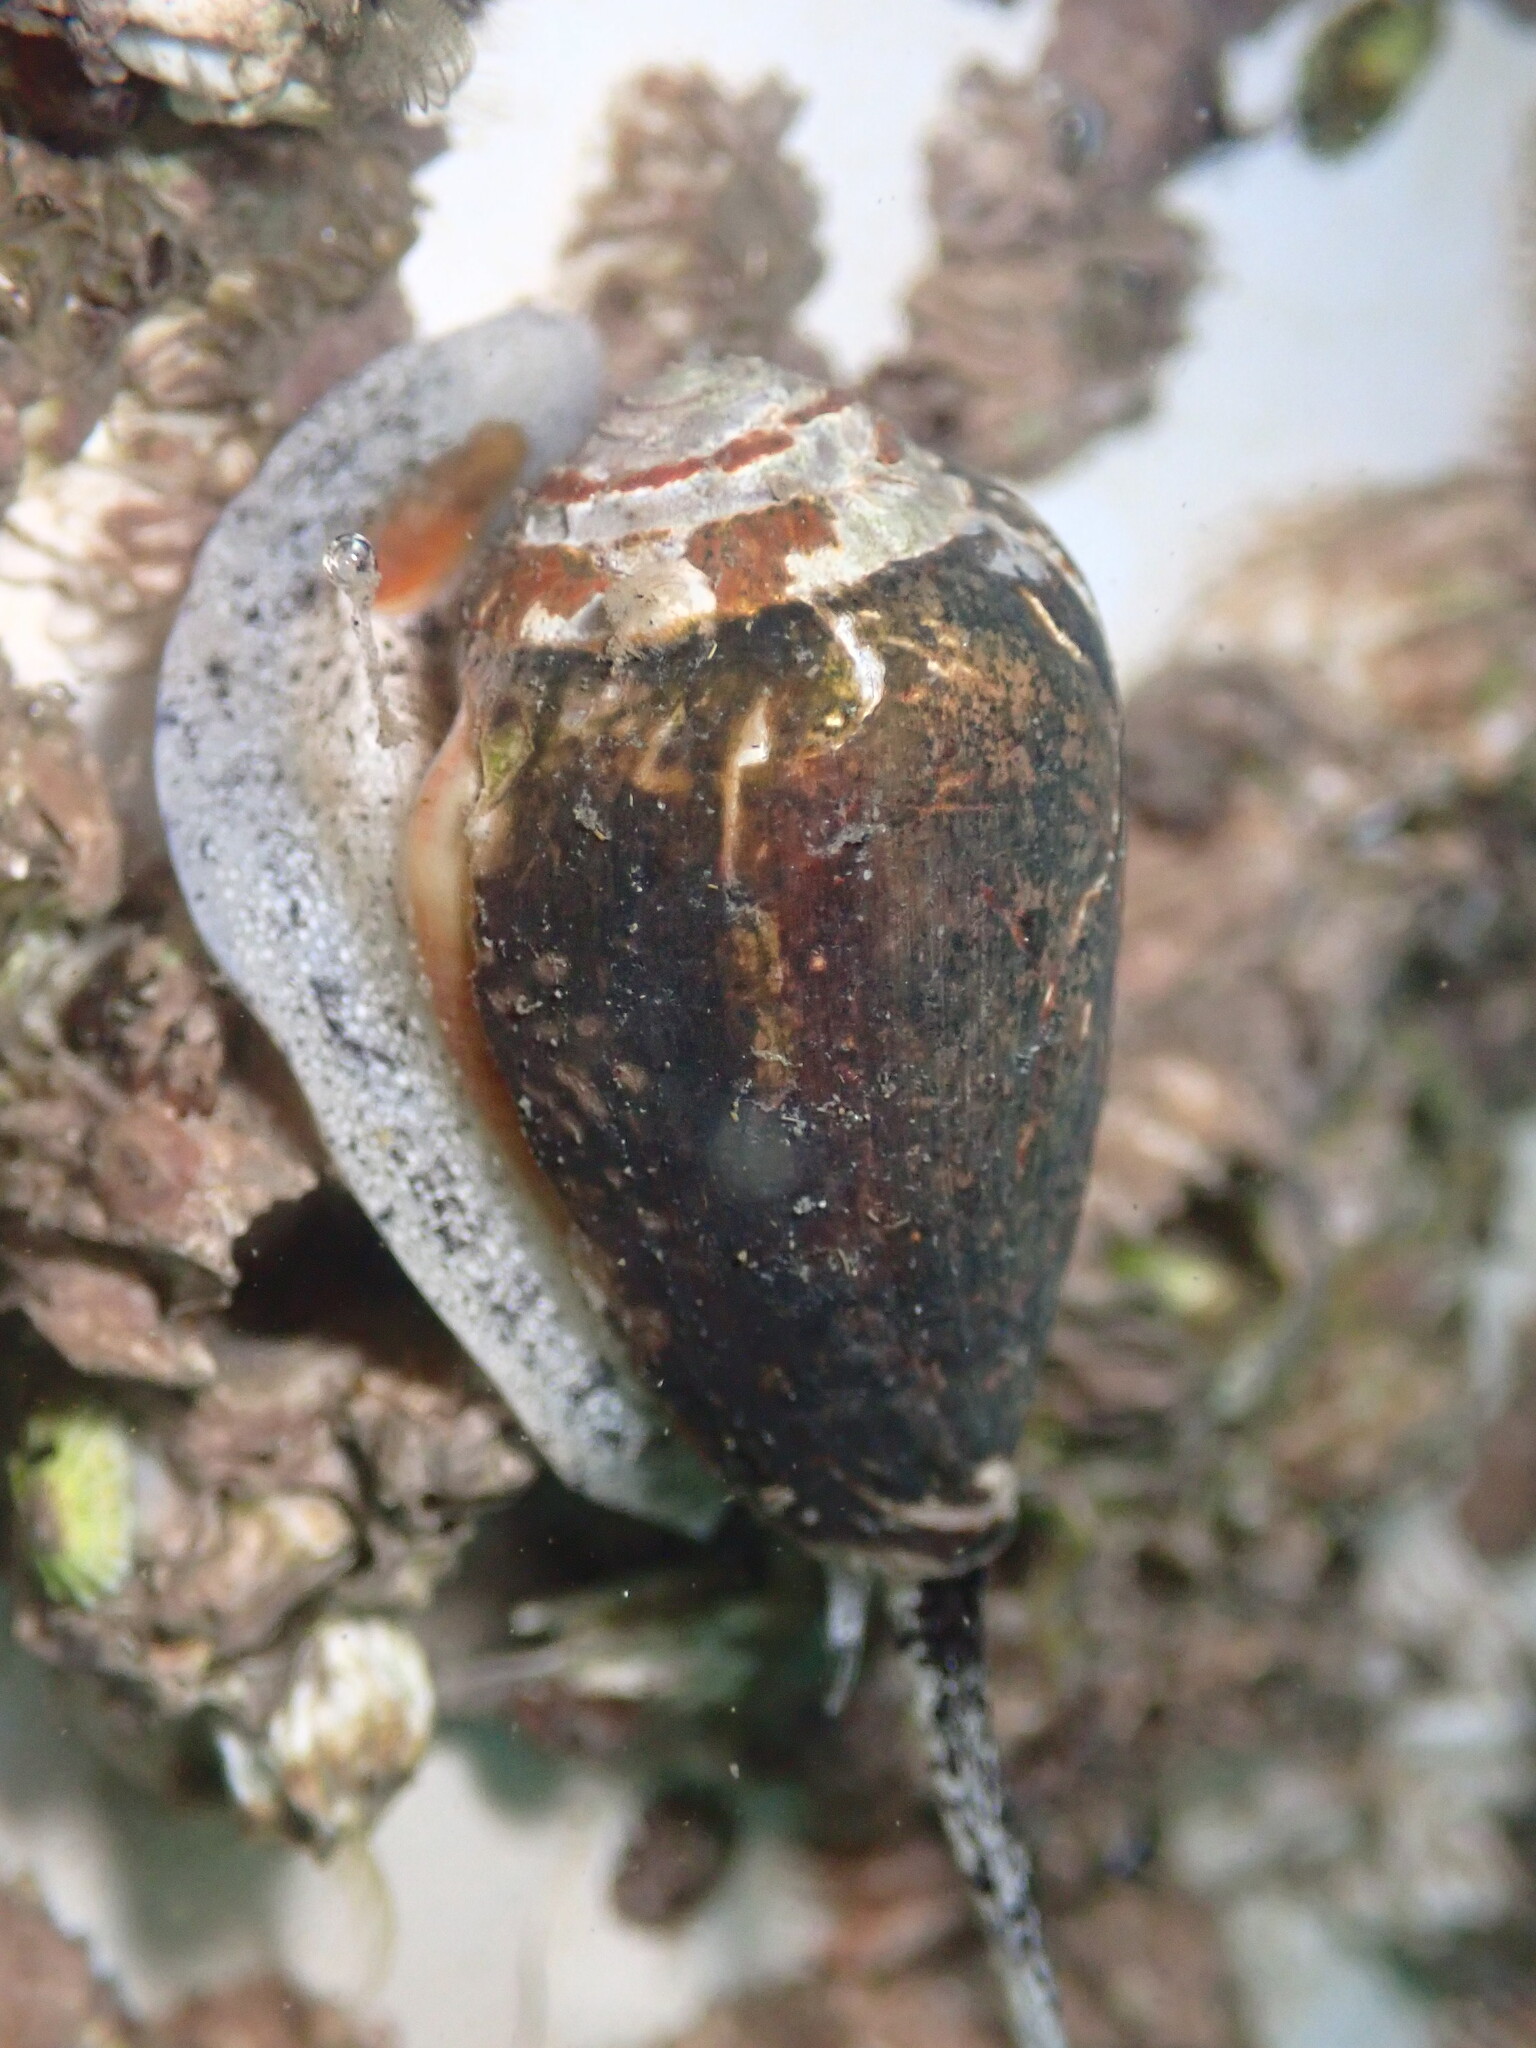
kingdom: Animalia
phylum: Mollusca
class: Gastropoda
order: Neogastropoda
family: Conidae
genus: Californiconus
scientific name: Californiconus californicus
